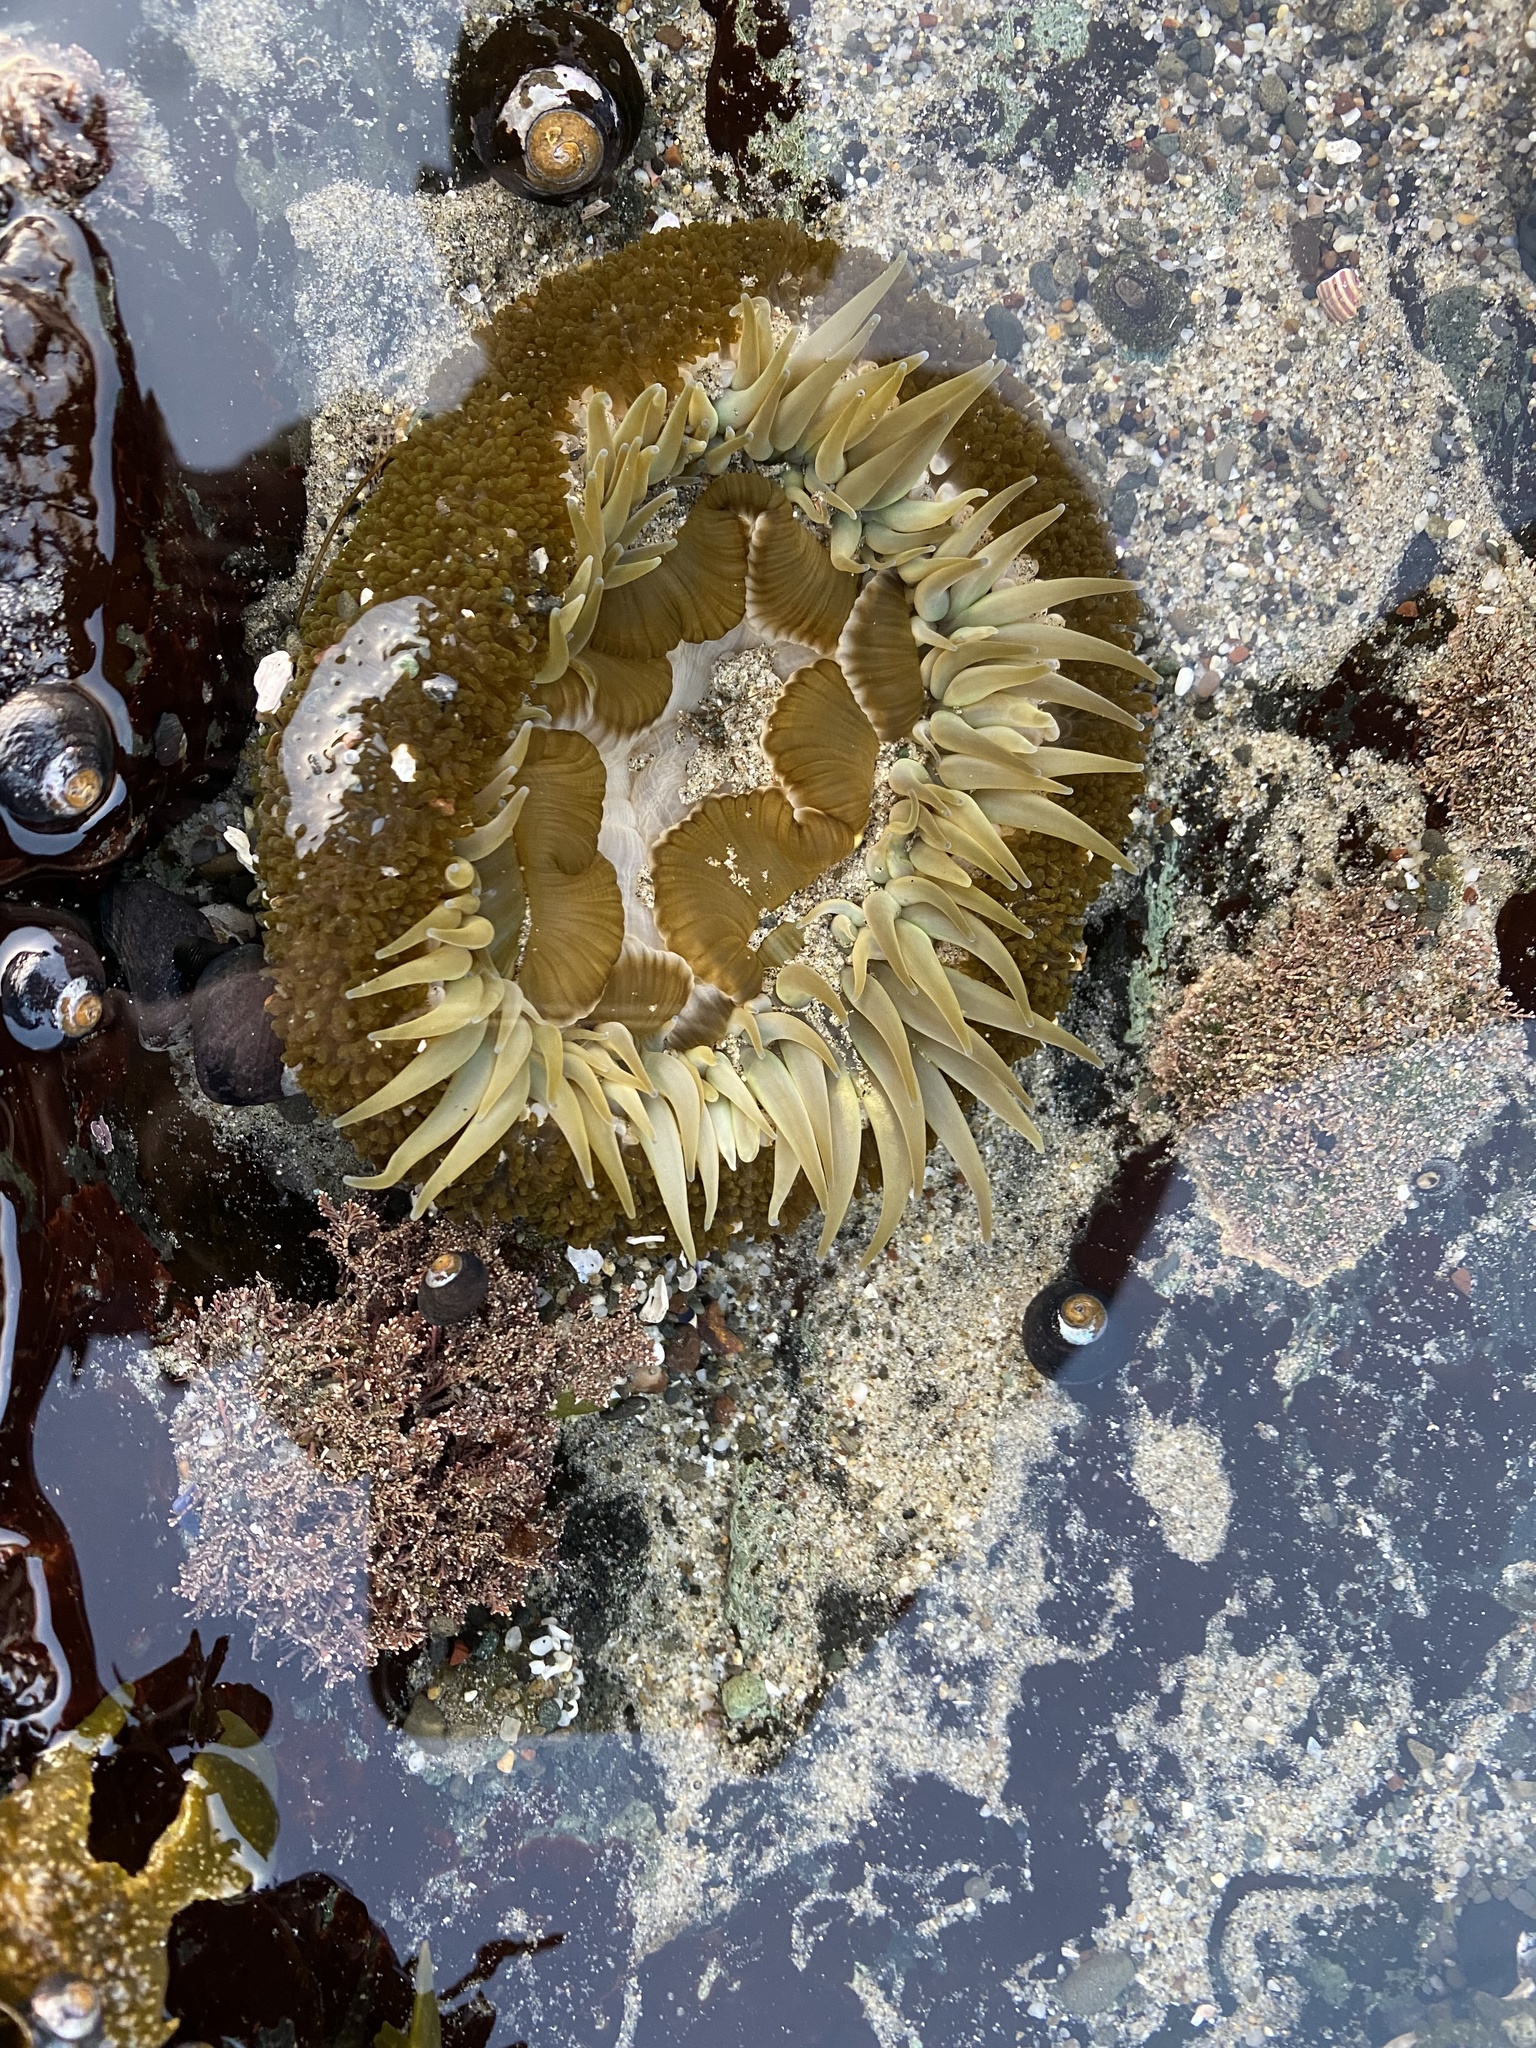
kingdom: Animalia
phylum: Cnidaria
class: Anthozoa
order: Actiniaria
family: Actiniidae
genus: Anthopleura
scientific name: Anthopleura sola
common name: Sun anemone
